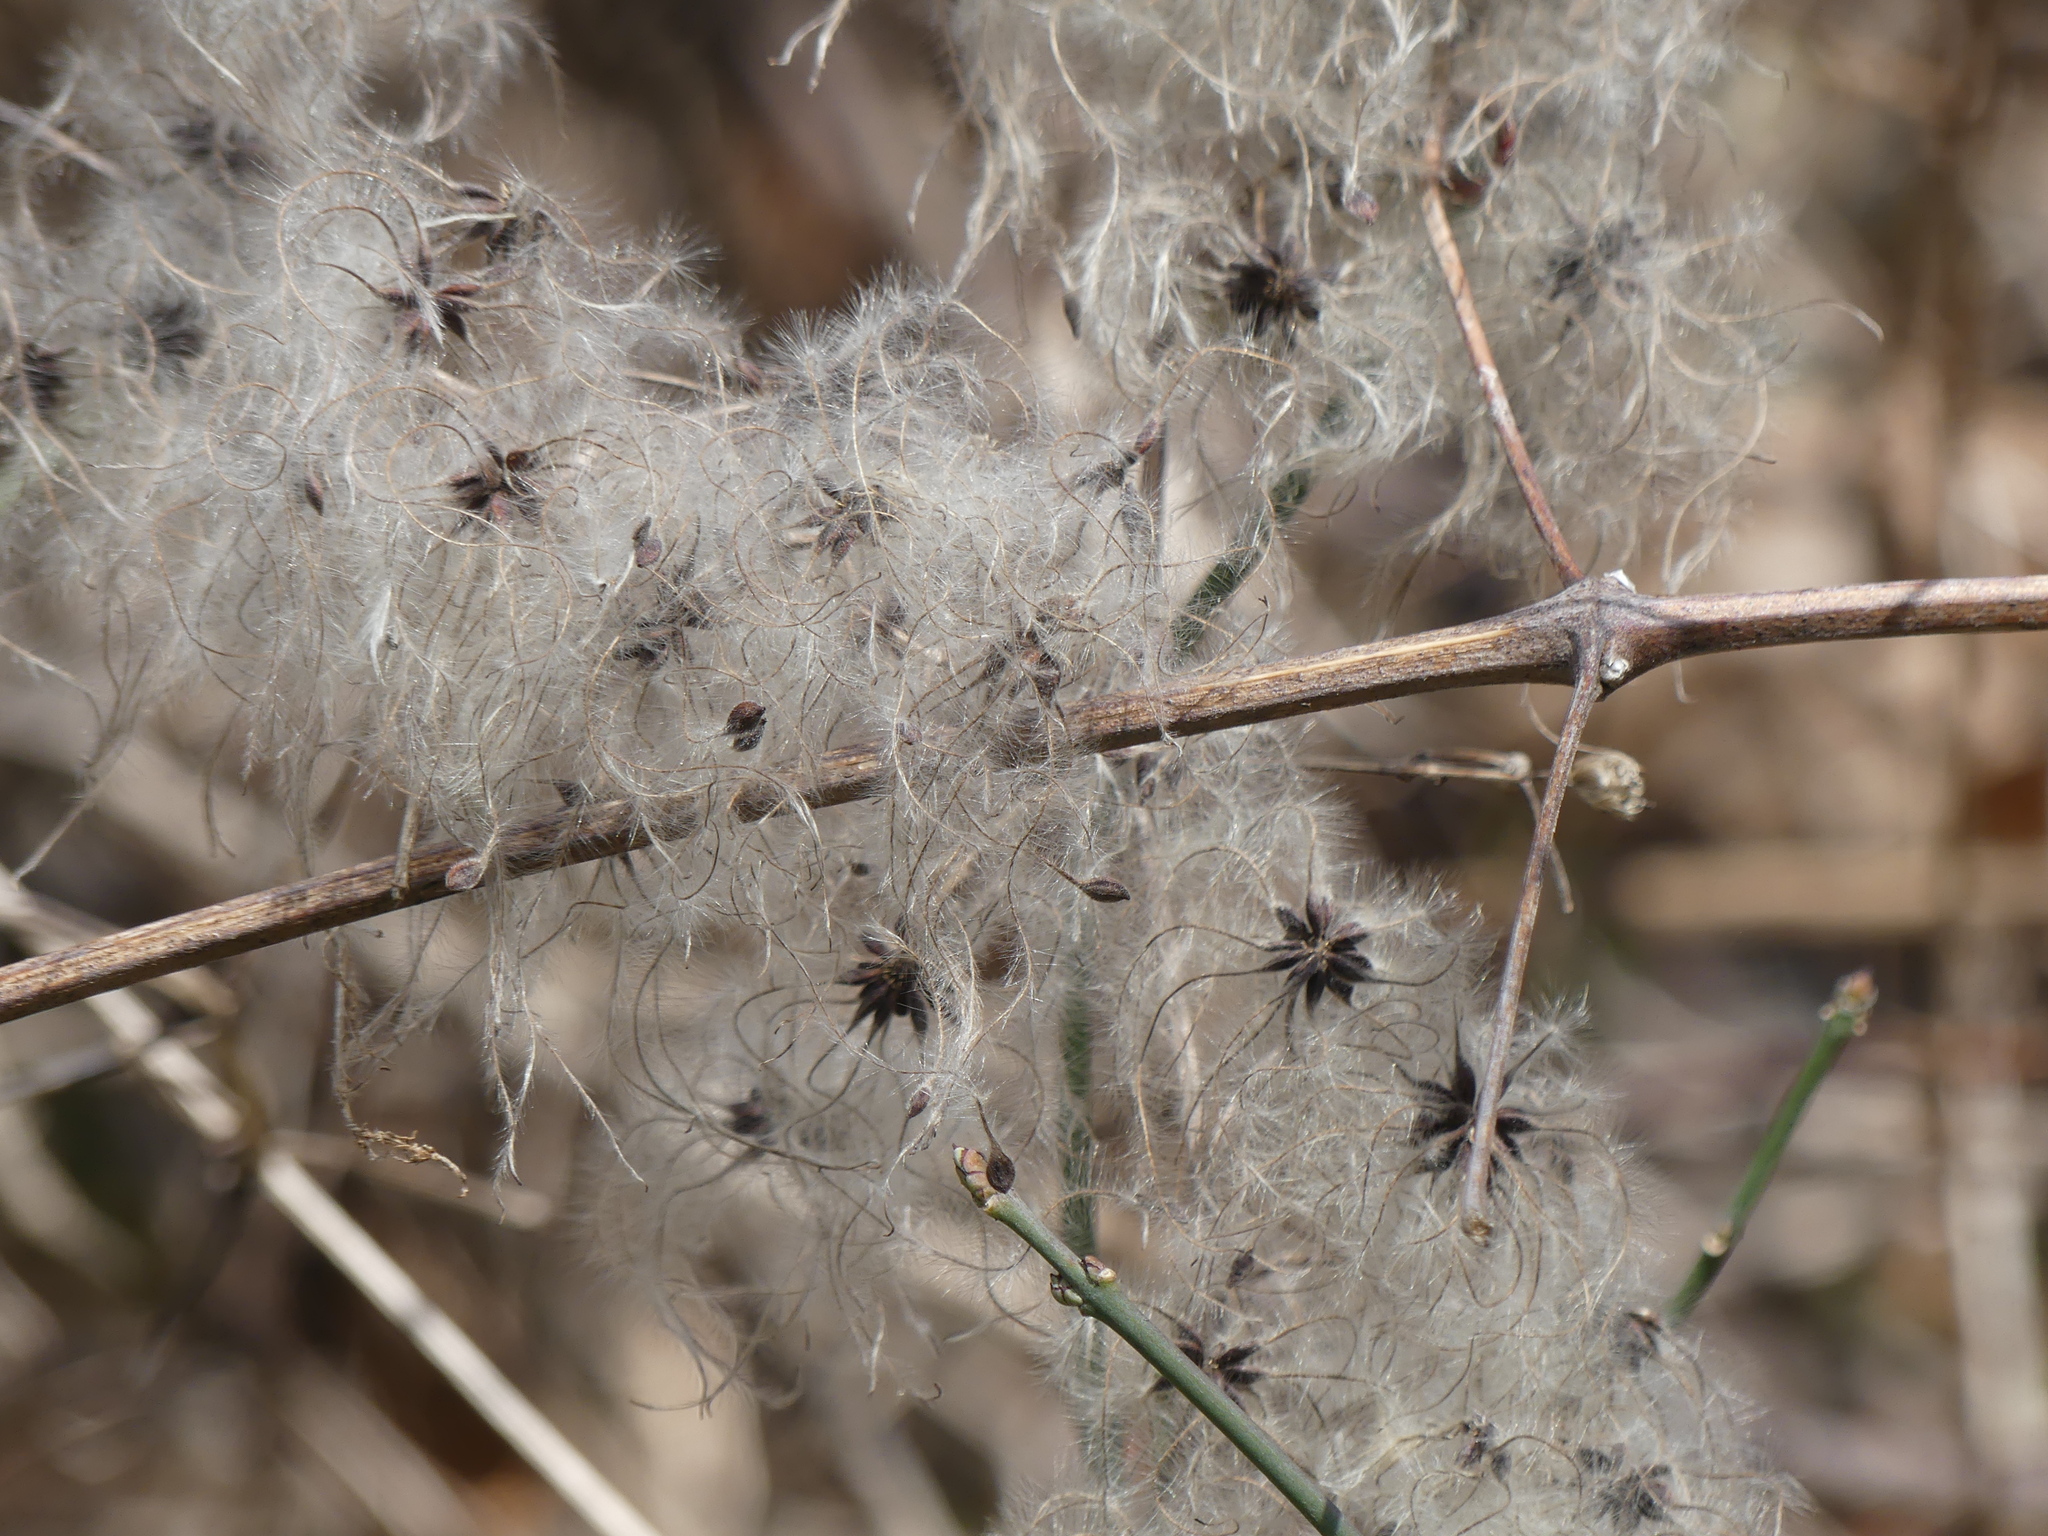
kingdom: Plantae
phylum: Tracheophyta
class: Magnoliopsida
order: Ranunculales
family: Ranunculaceae
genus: Clematis
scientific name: Clematis vitalba
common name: Evergreen clematis
